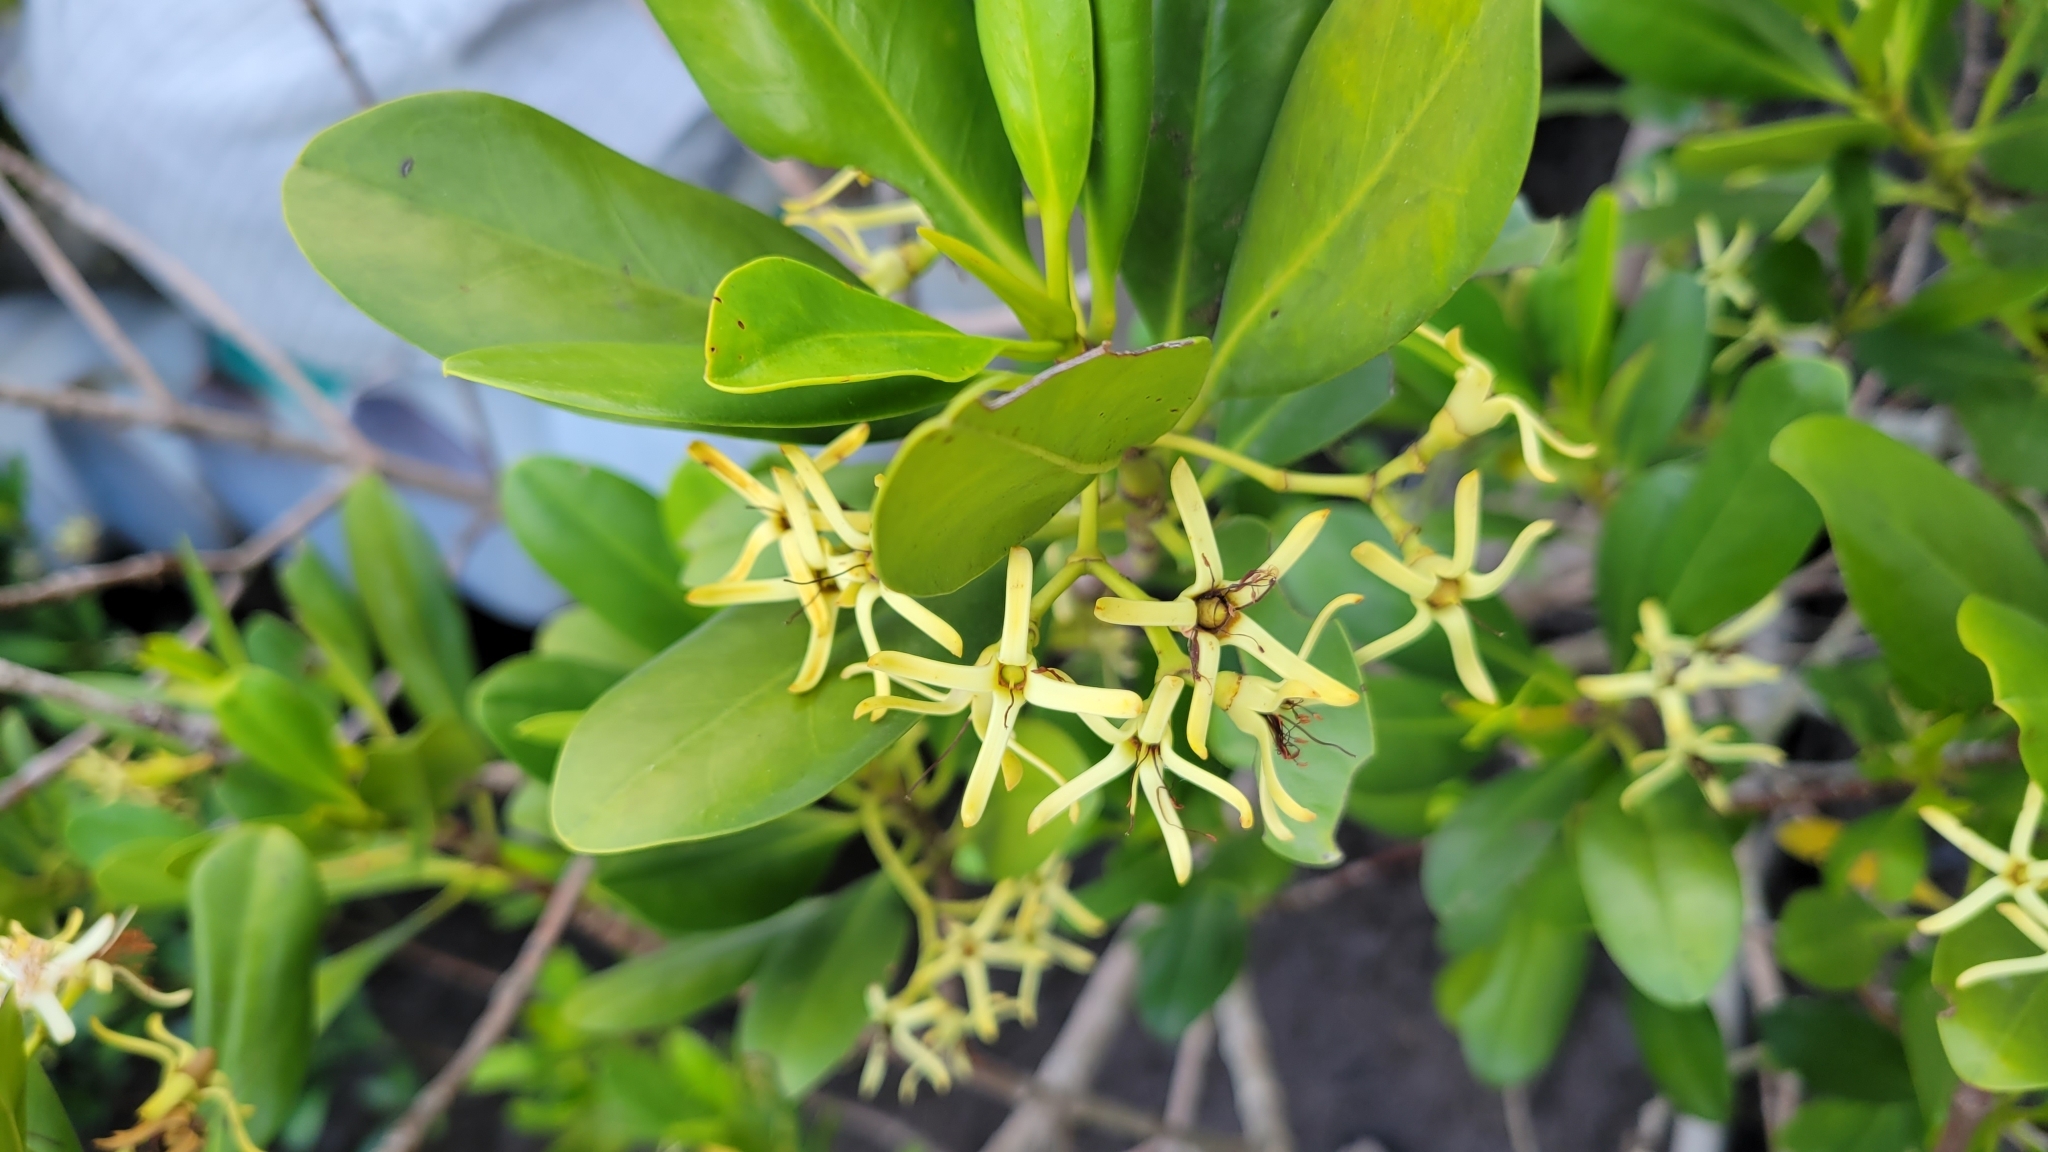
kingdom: Plantae
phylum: Tracheophyta
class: Magnoliopsida
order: Malpighiales
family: Rhizophoraceae
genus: Kandelia
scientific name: Kandelia obovata
